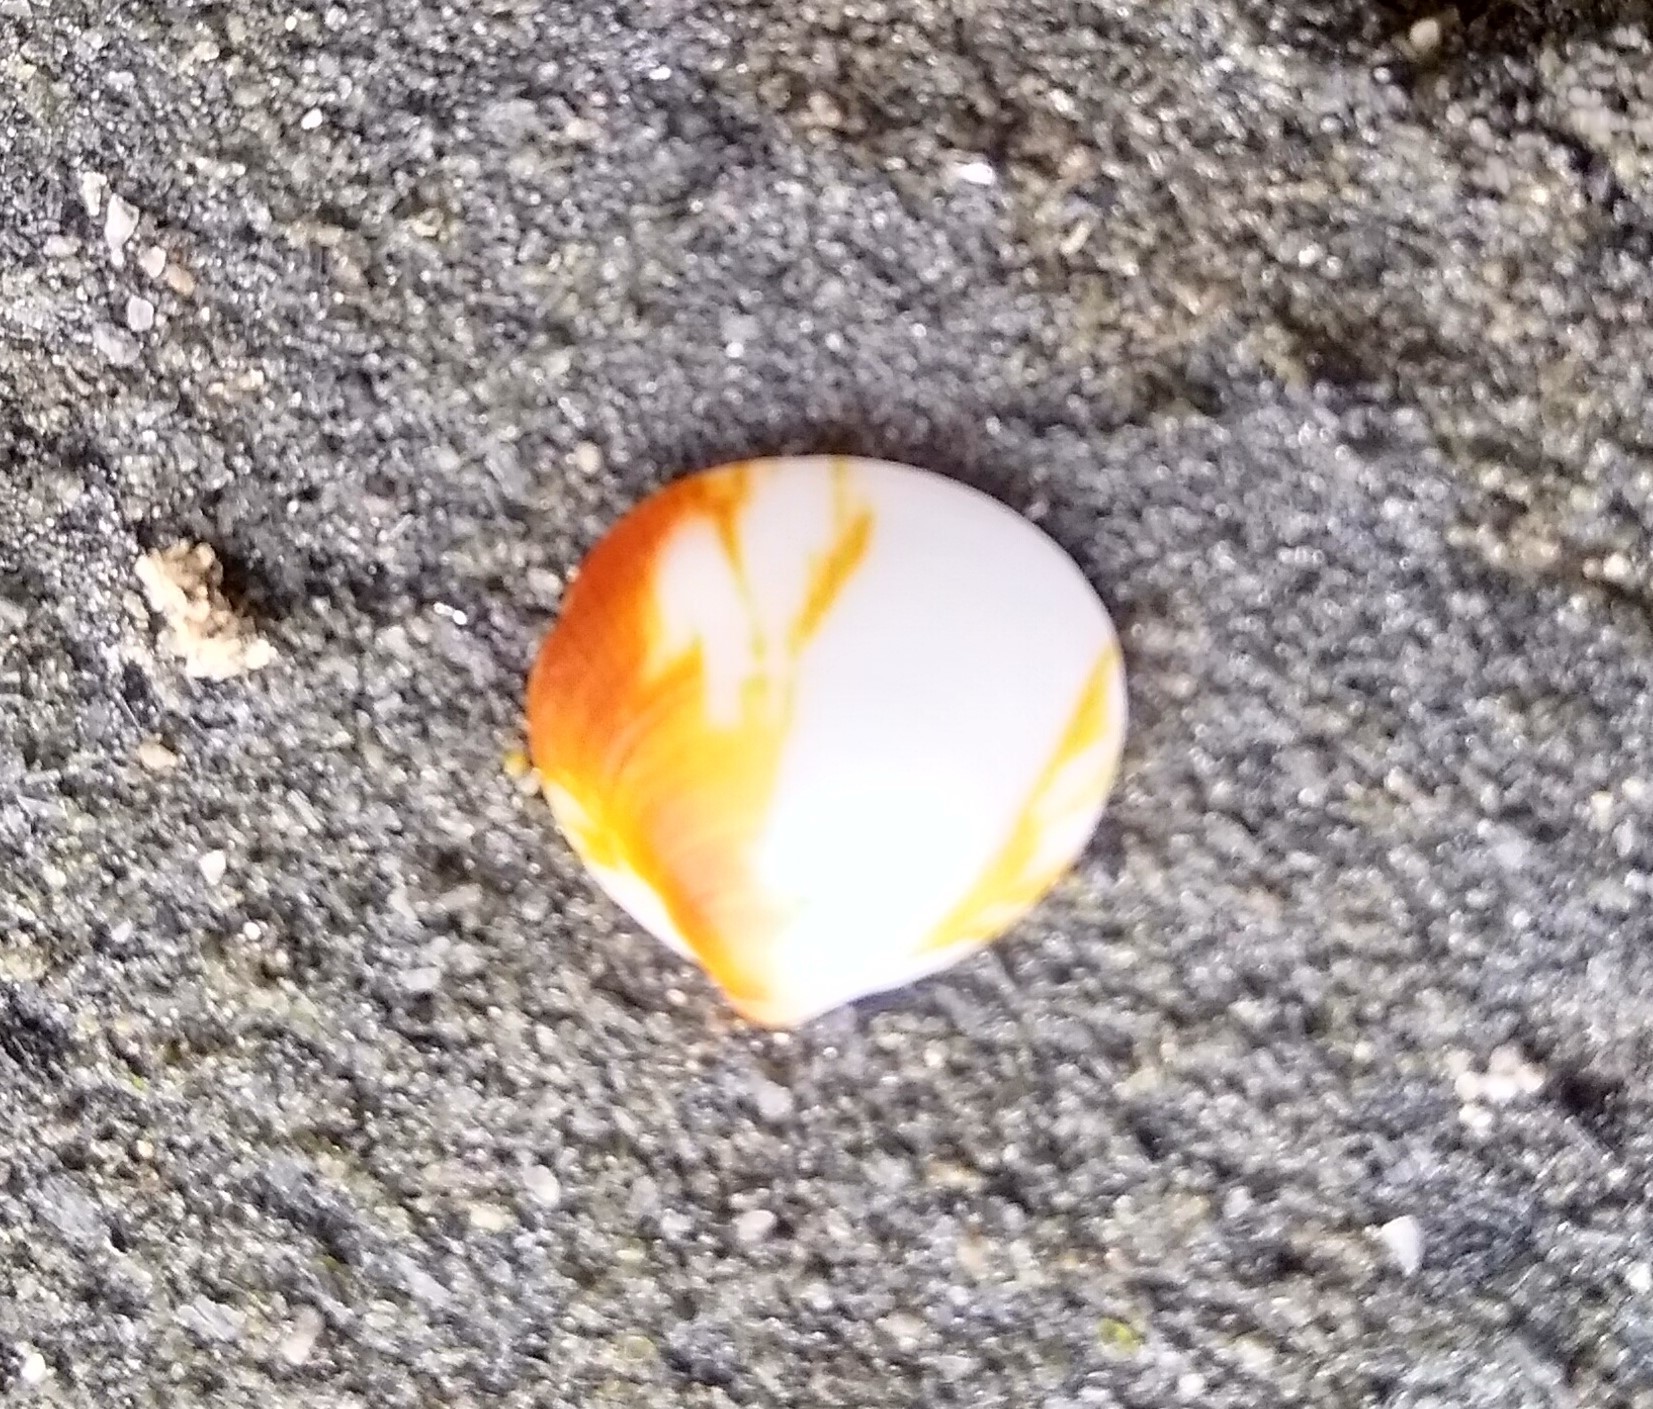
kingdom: Animalia
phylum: Mollusca
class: Bivalvia
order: Arcida
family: Glycymerididae
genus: Glycymeris
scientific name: Glycymeris modesta
